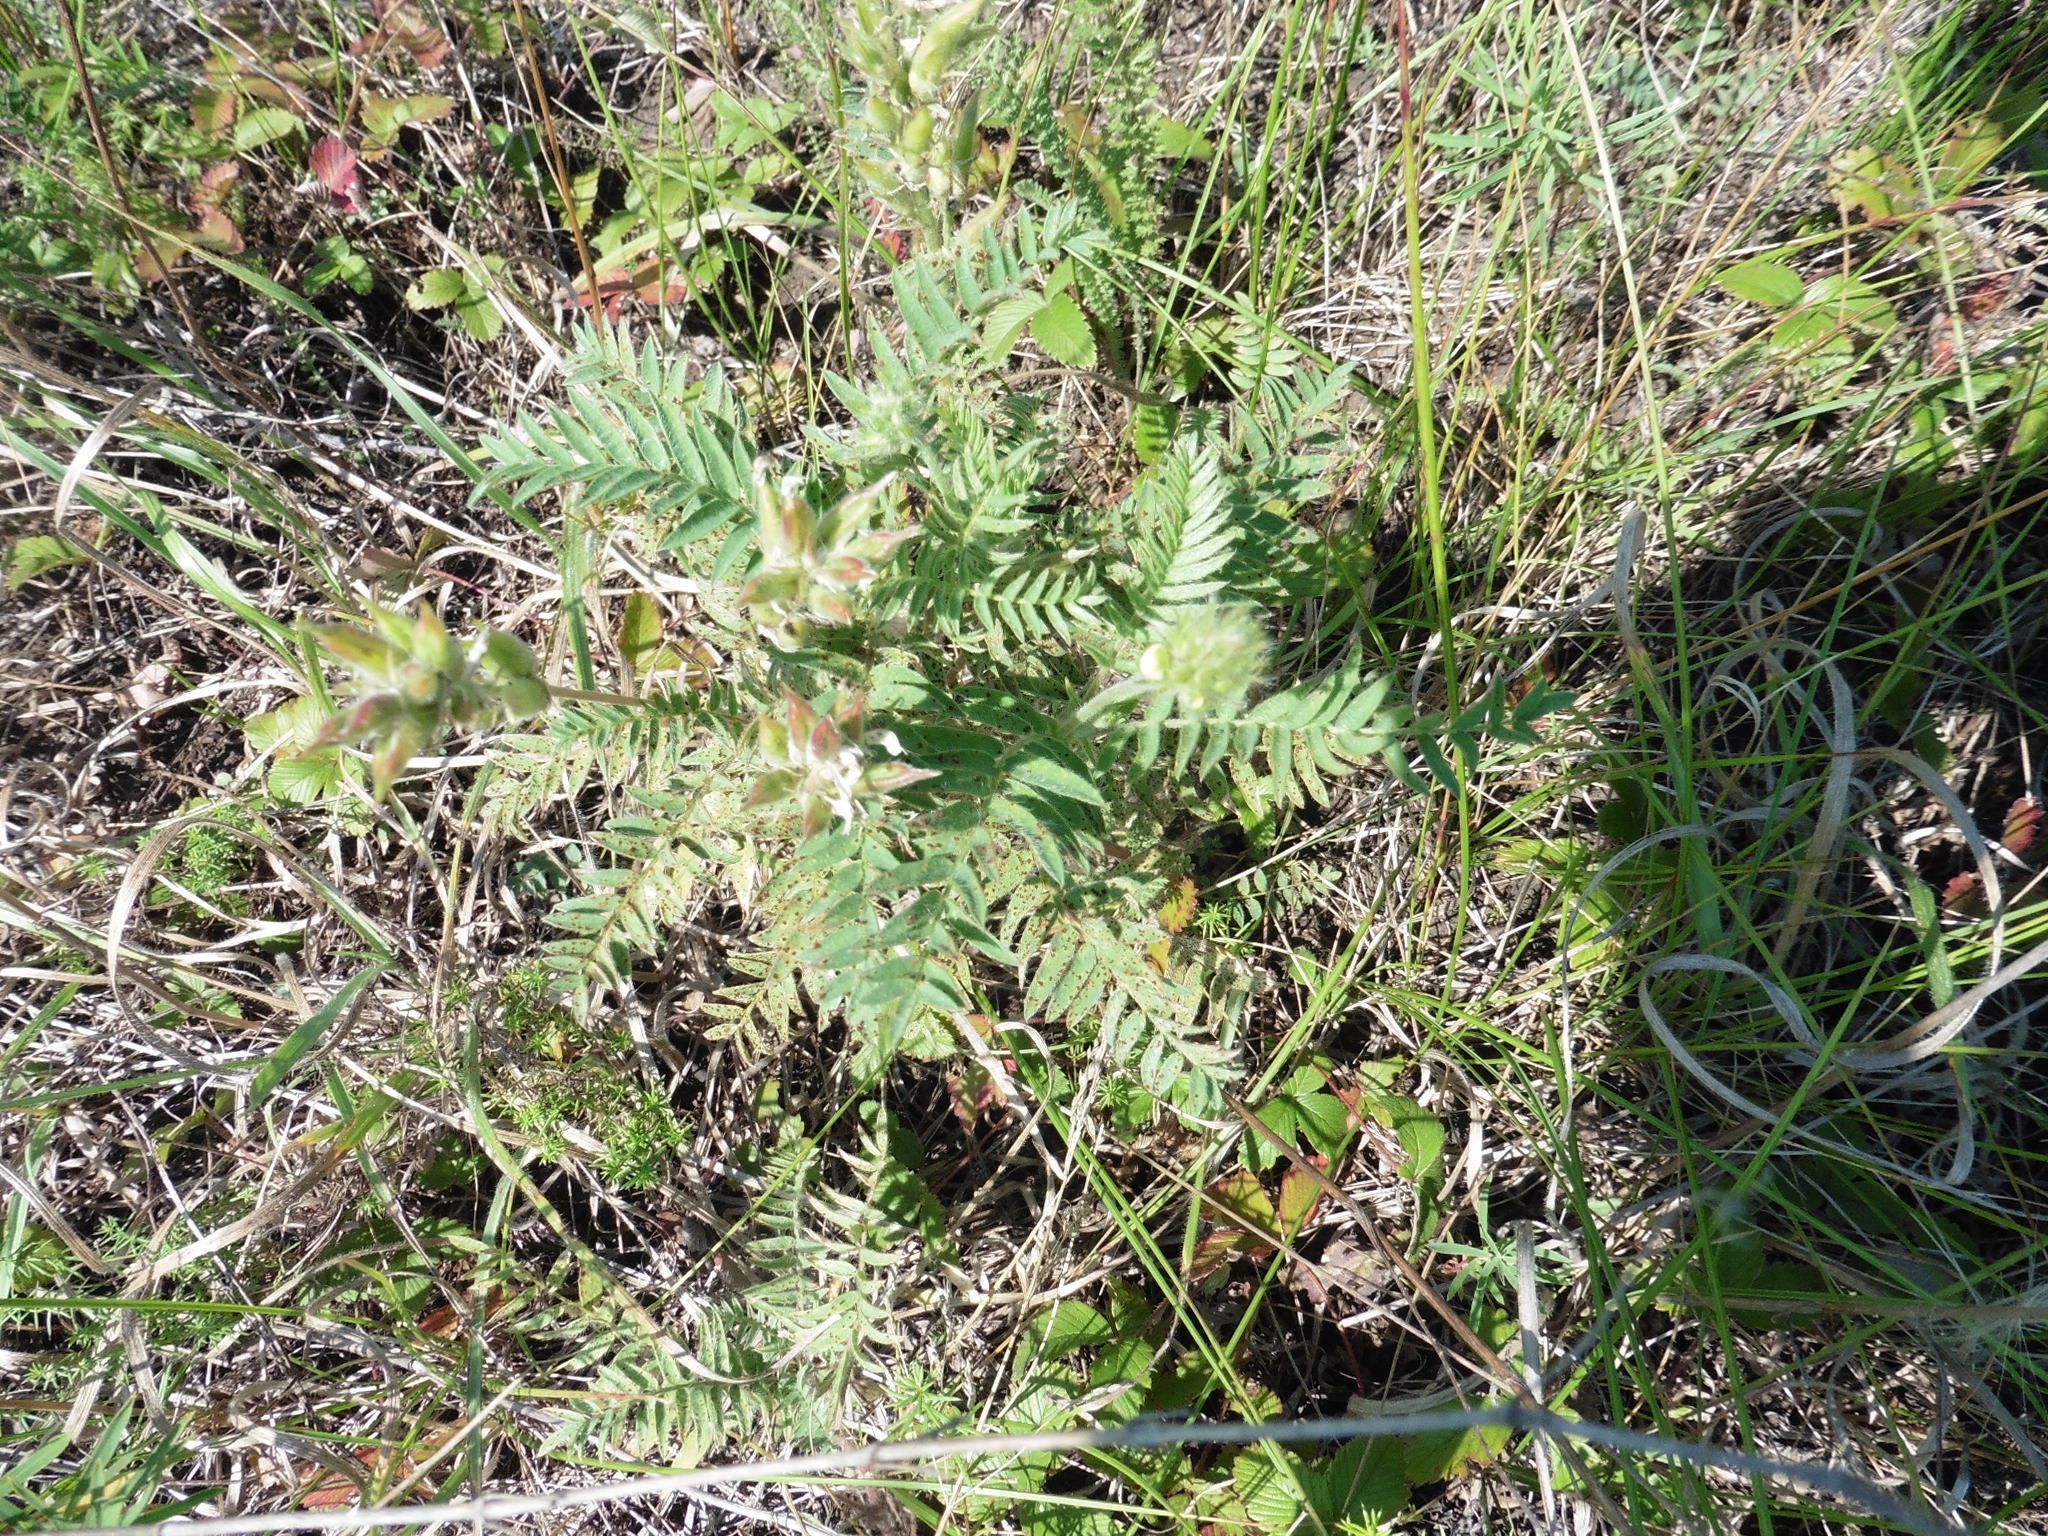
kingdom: Plantae
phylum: Tracheophyta
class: Magnoliopsida
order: Fabales
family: Fabaceae
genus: Oxytropis
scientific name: Oxytropis pilosa
